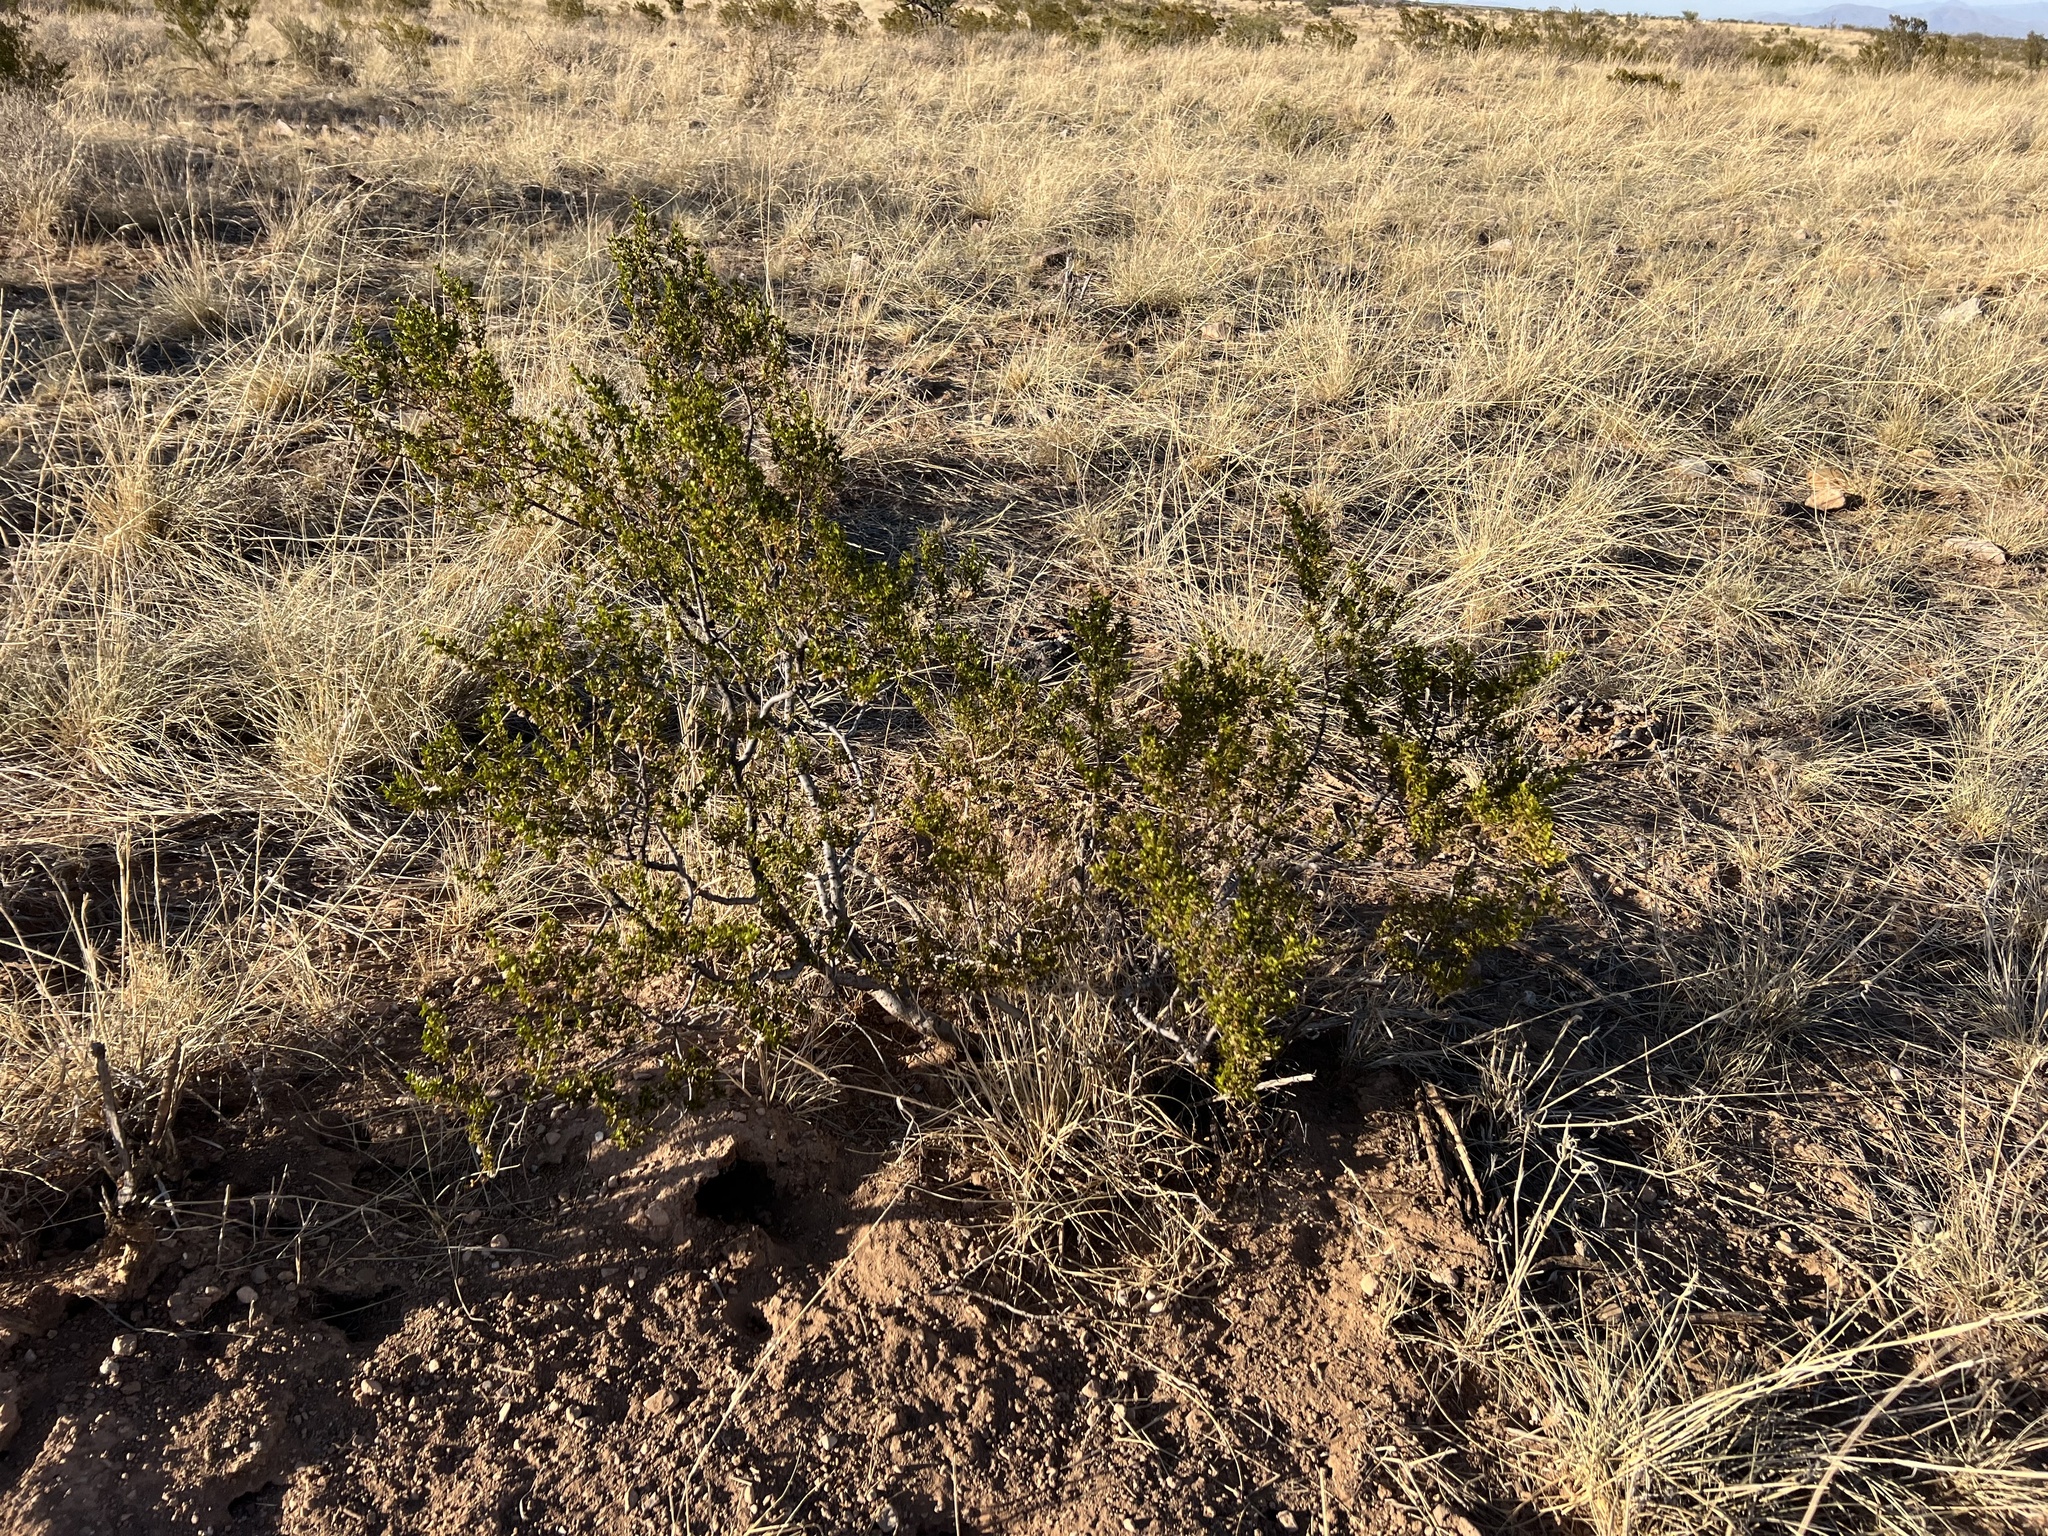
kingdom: Plantae
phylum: Tracheophyta
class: Magnoliopsida
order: Zygophyllales
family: Zygophyllaceae
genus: Larrea
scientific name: Larrea tridentata
